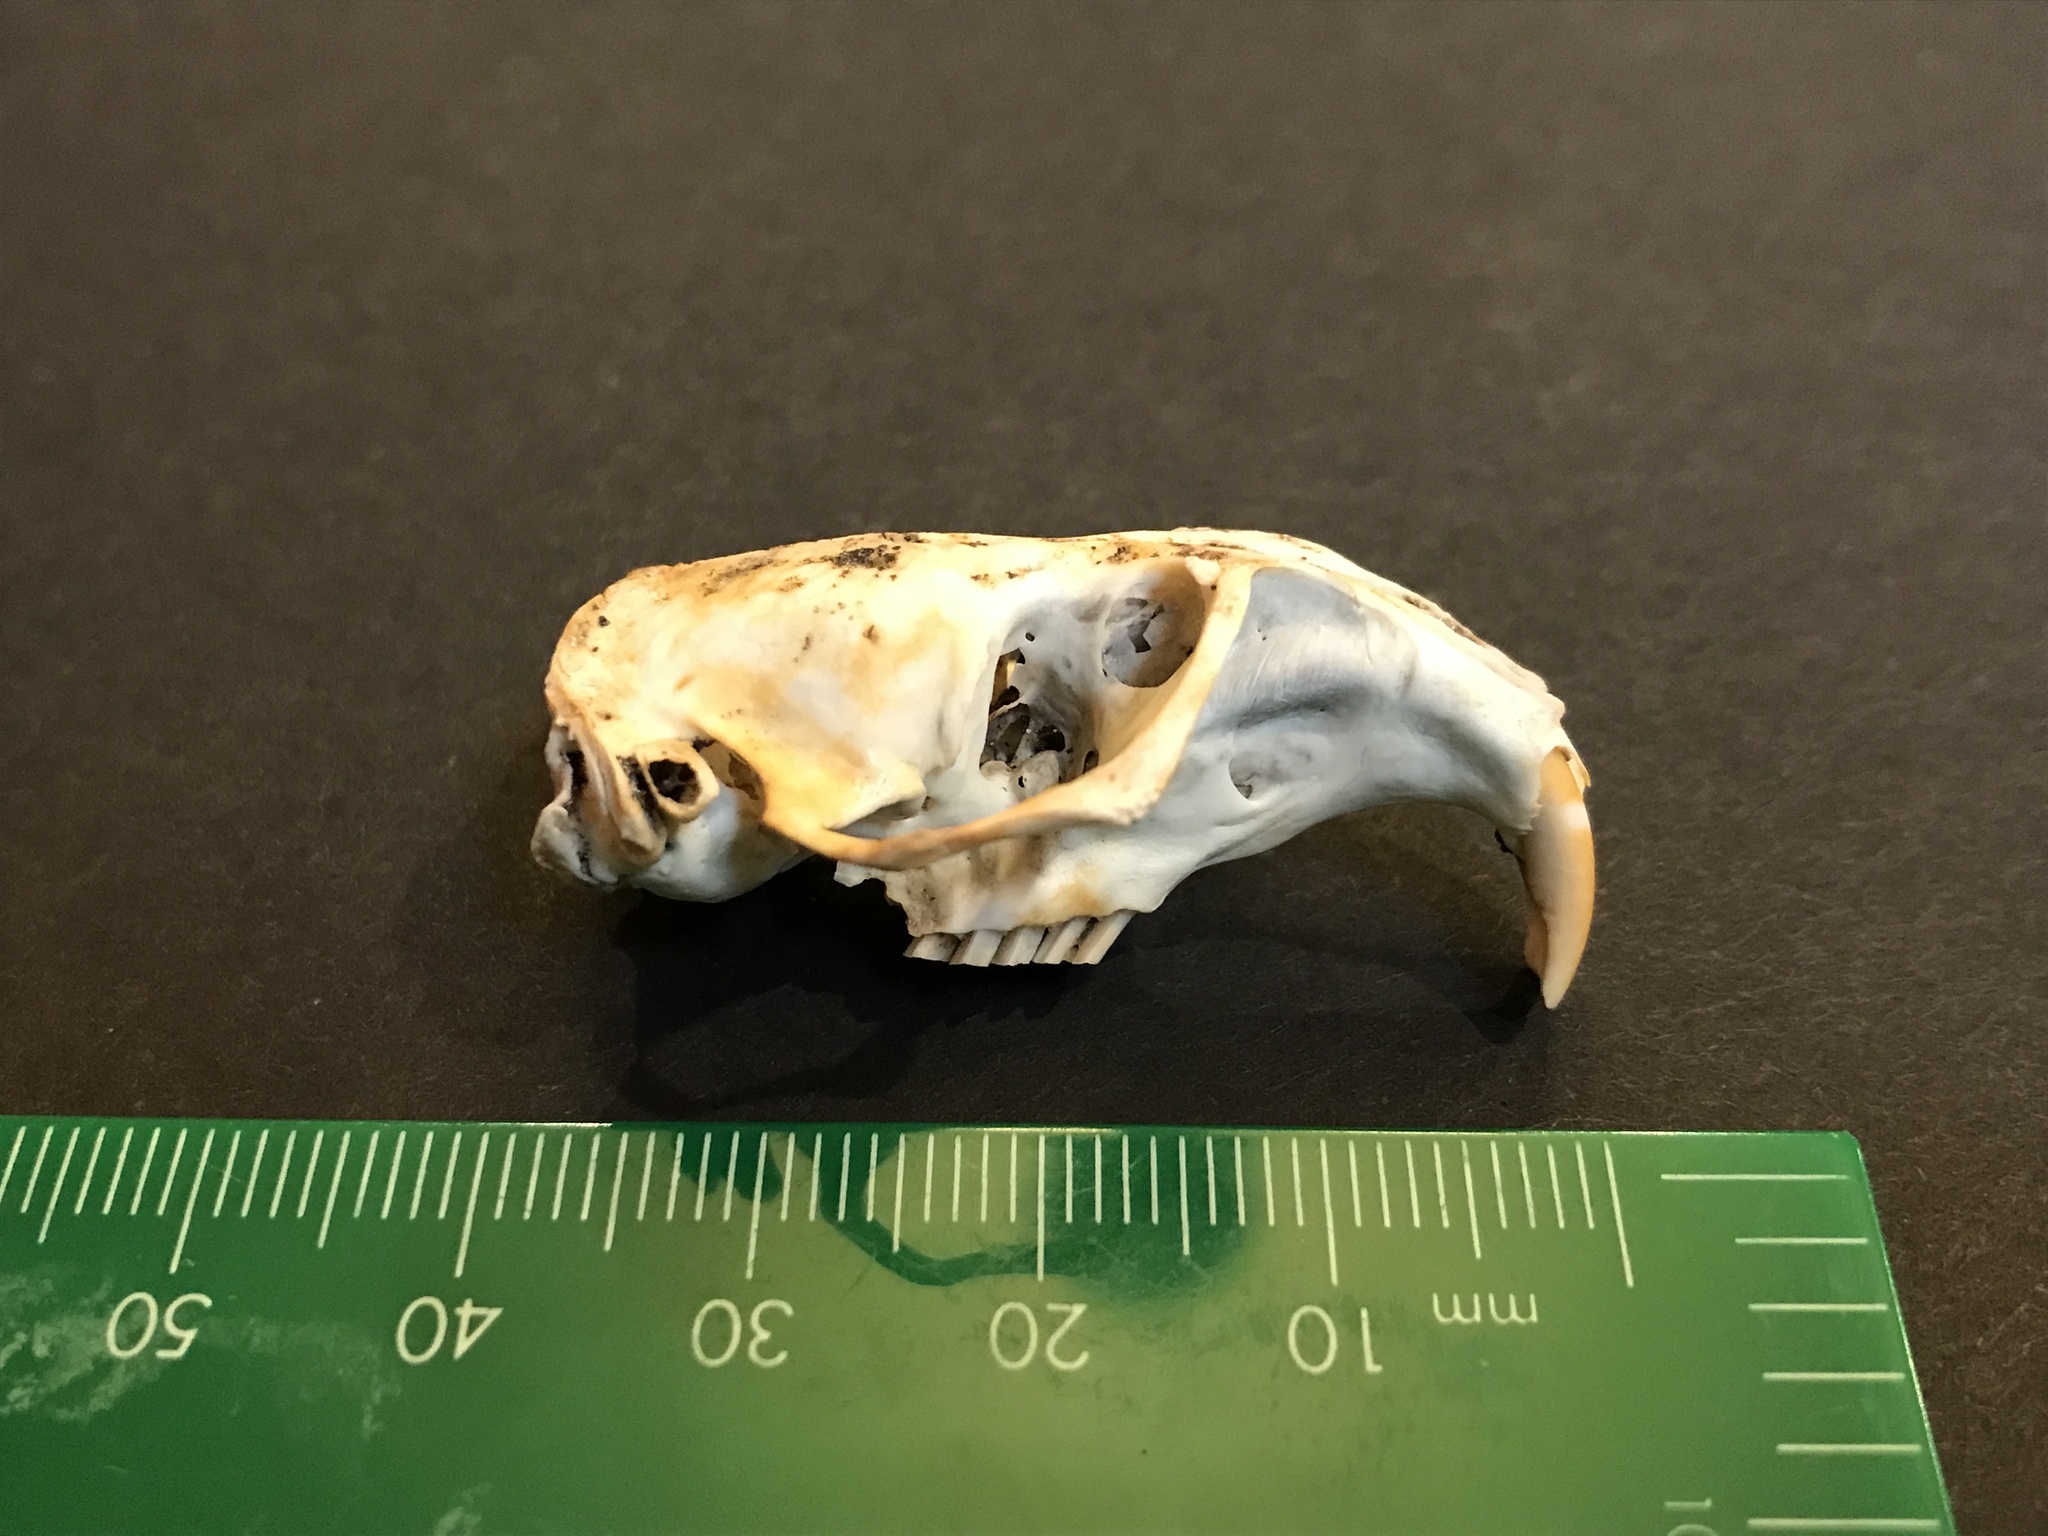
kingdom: Animalia
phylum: Chordata
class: Mammalia
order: Rodentia
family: Geomyidae
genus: Thomomys
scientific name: Thomomys bottae
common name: Botta's pocket gopher
